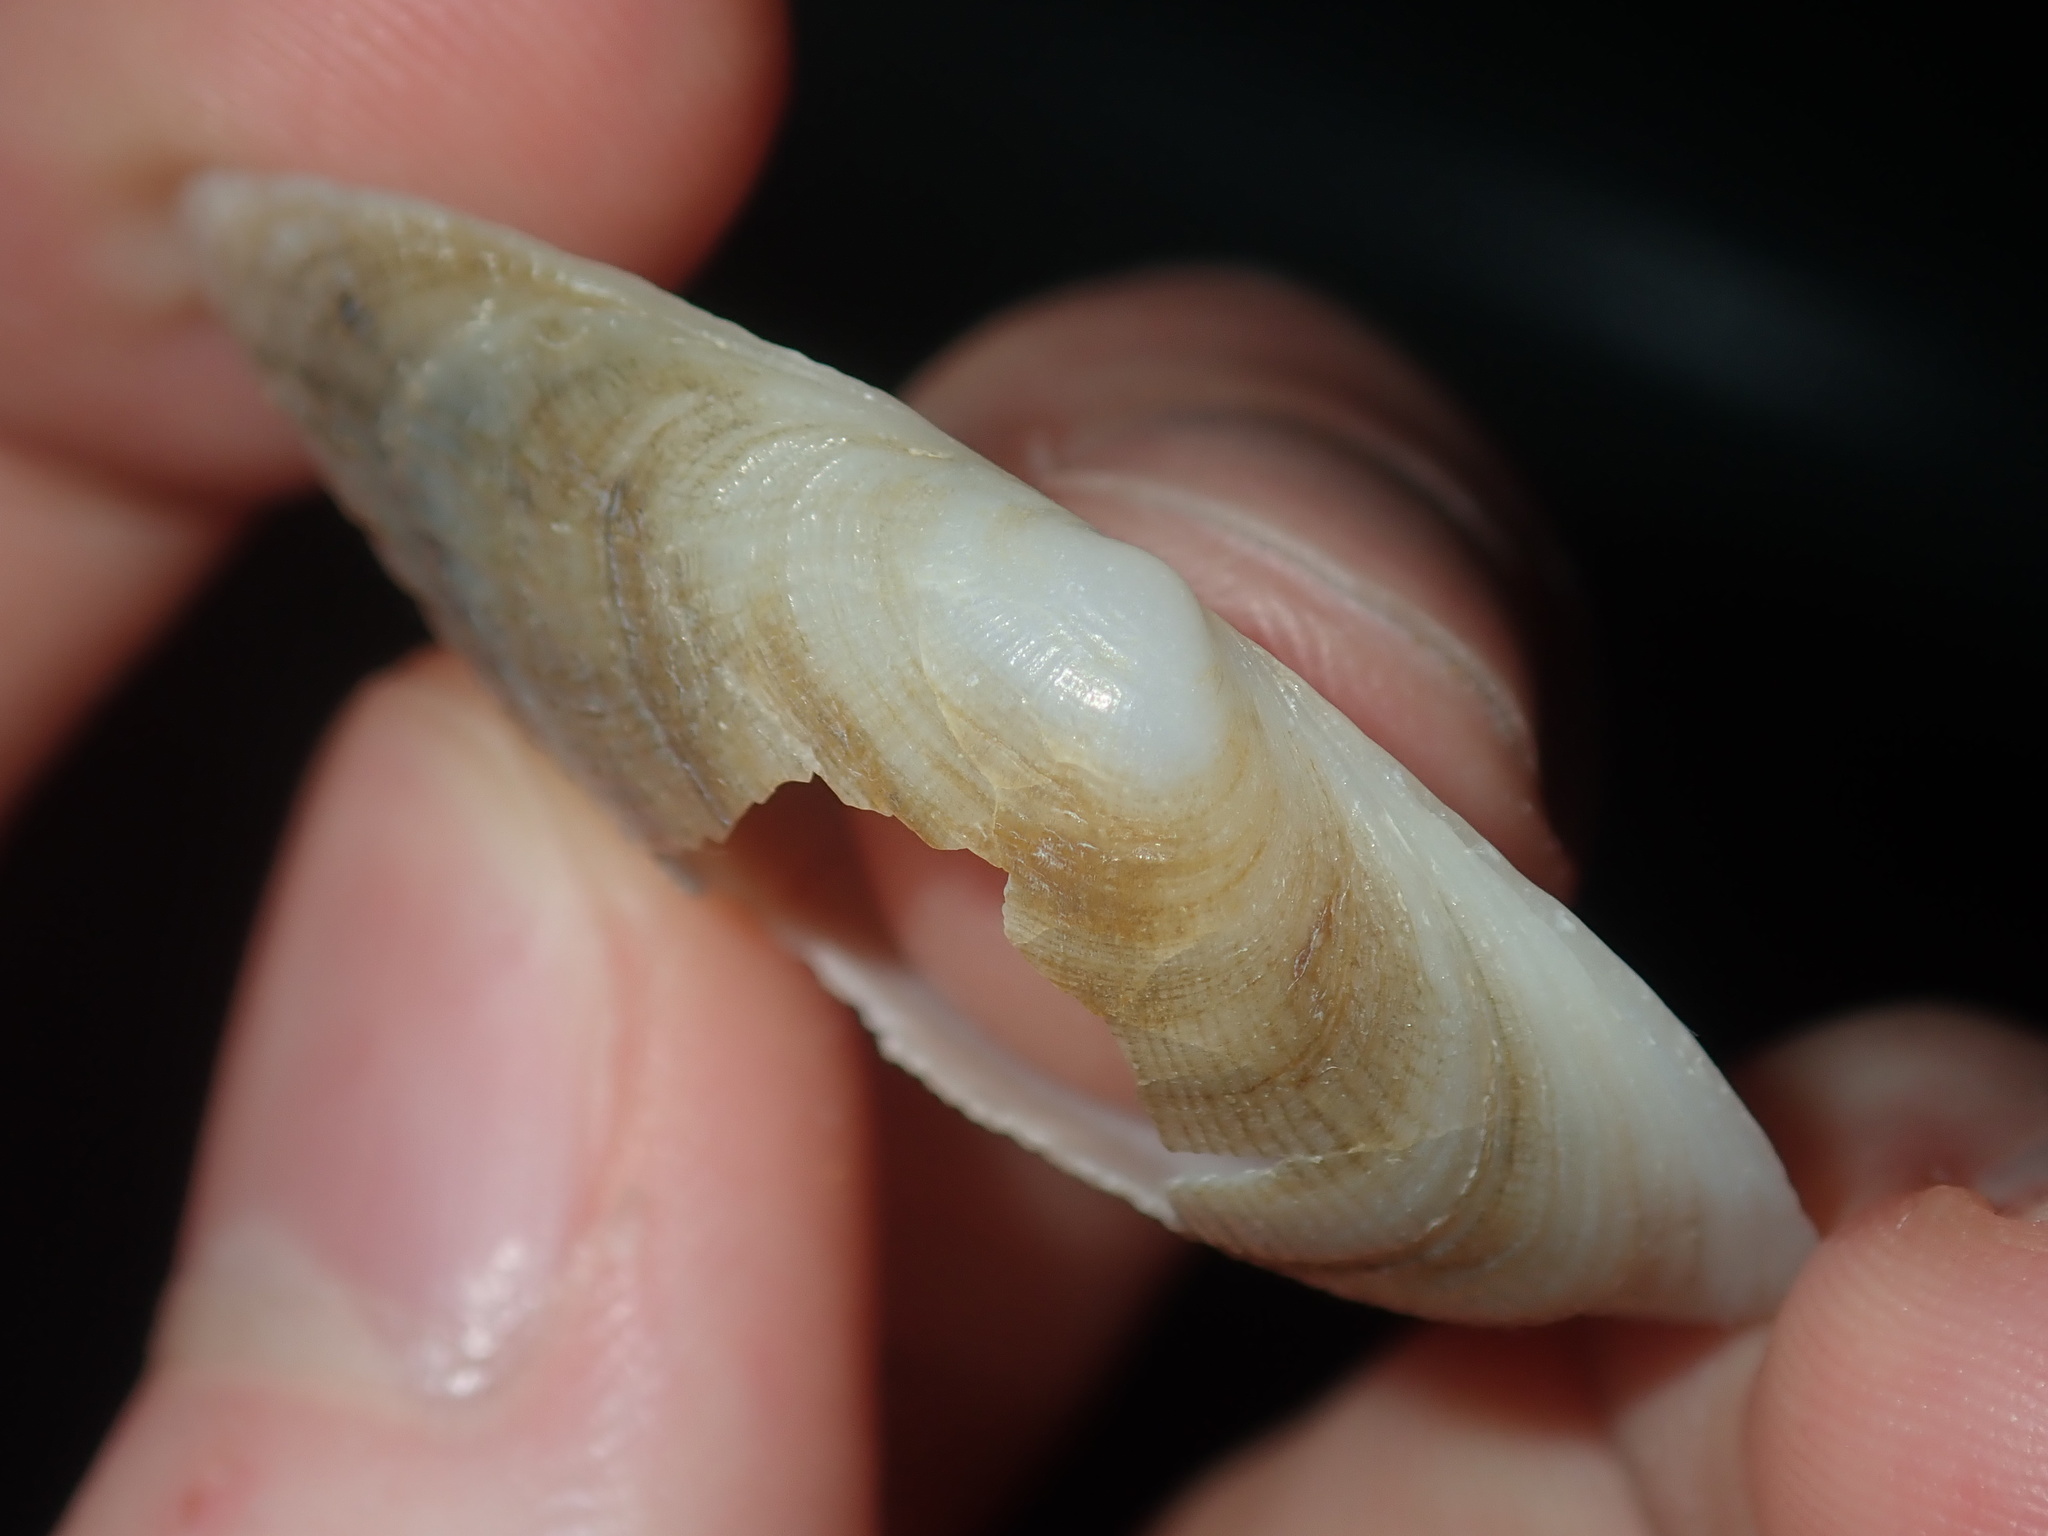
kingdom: Animalia
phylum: Mollusca
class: Bivalvia
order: Venerida
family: Mactridae
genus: Meropesta
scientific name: Meropesta nicobarica
